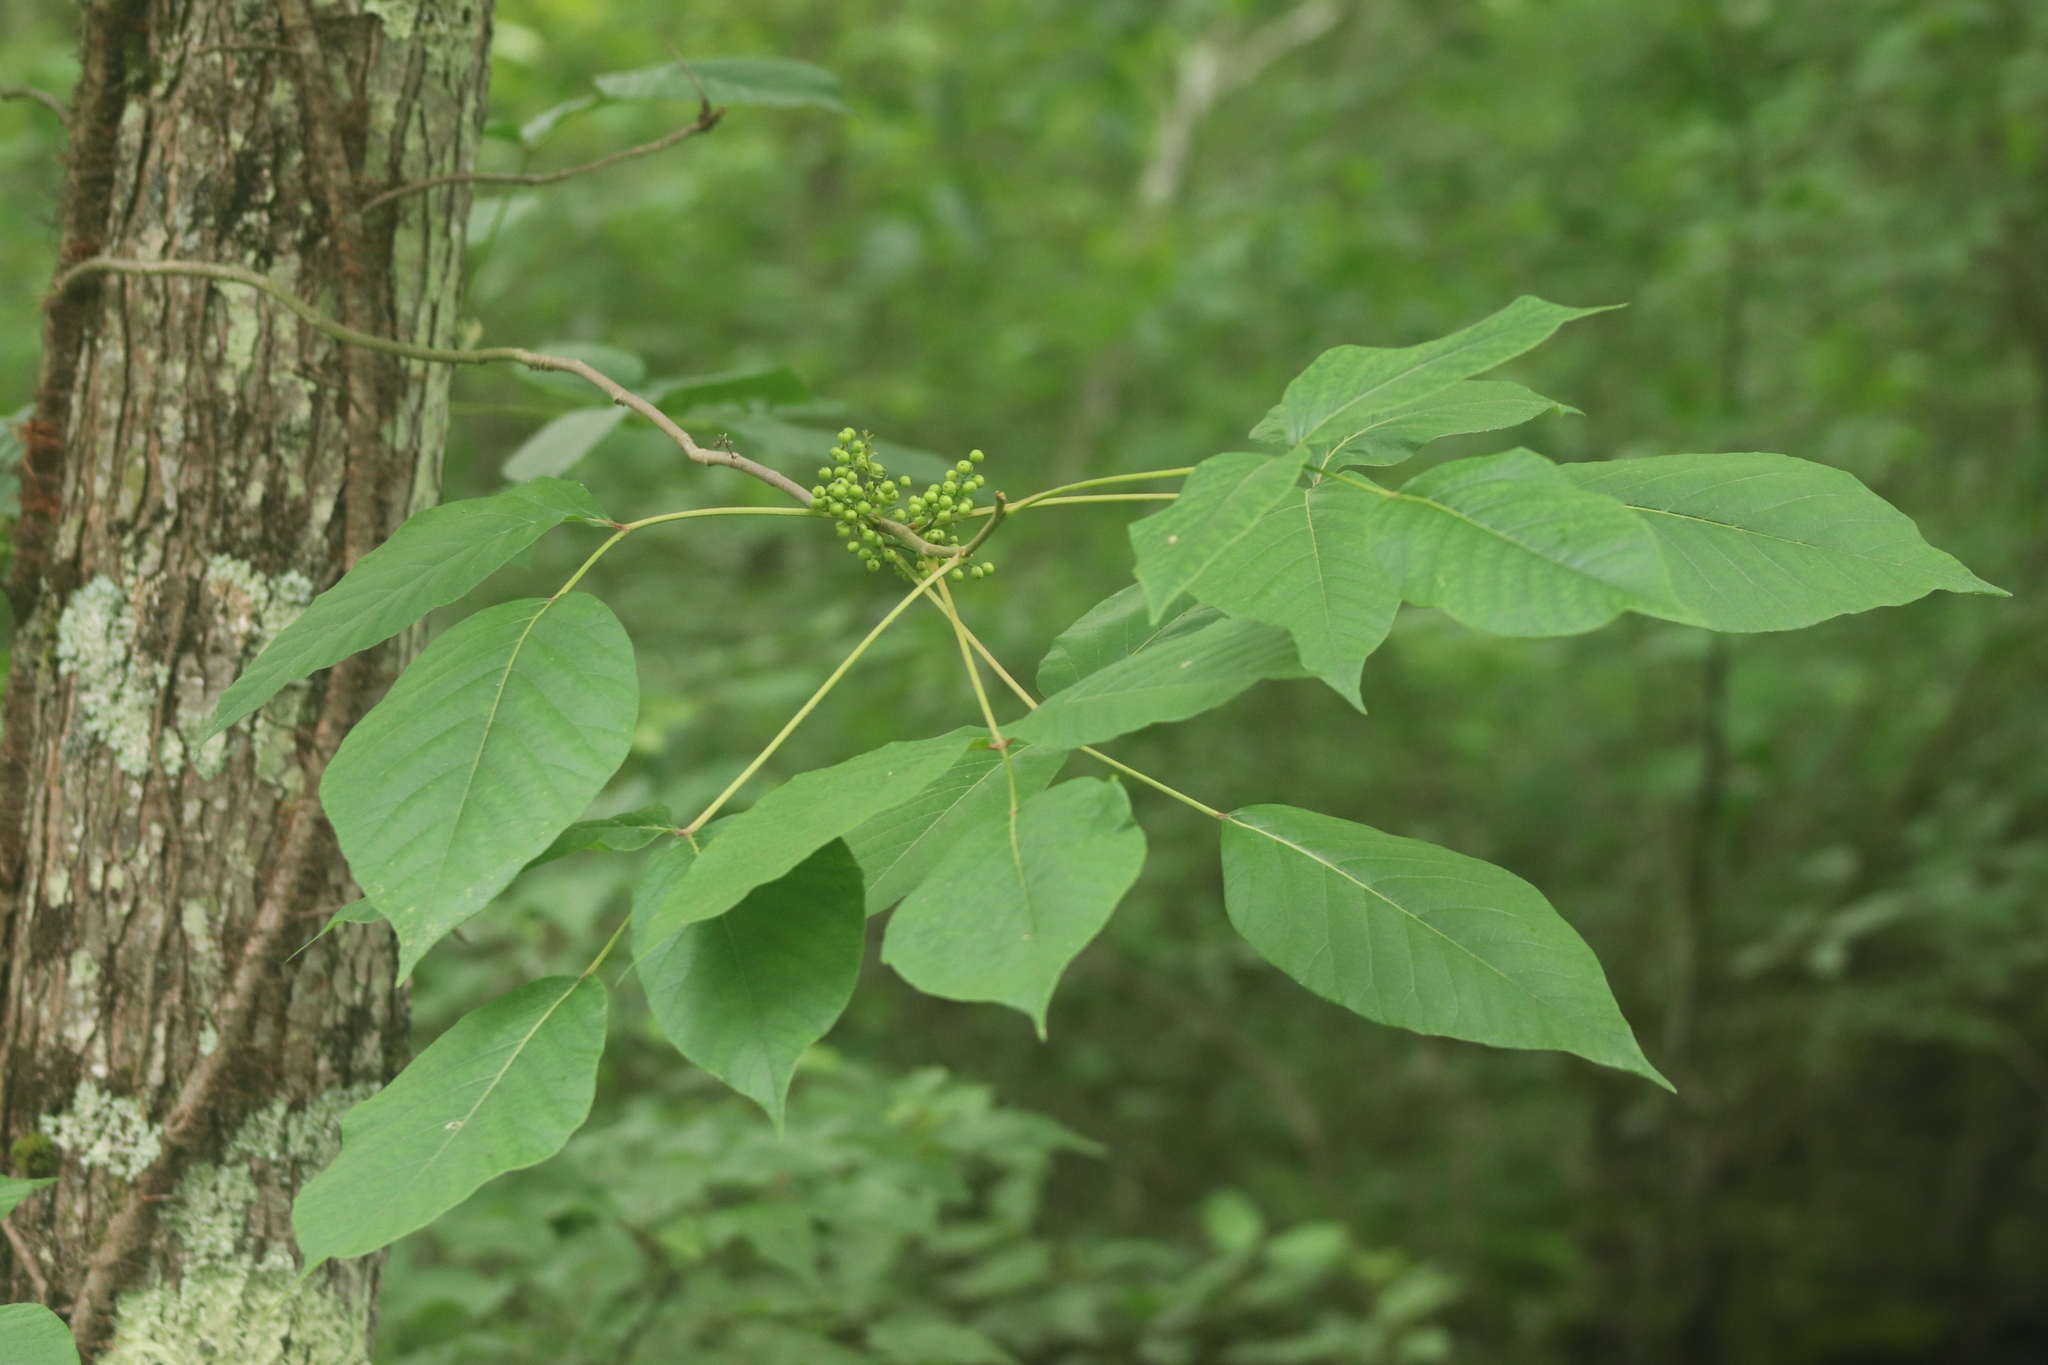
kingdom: Plantae
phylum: Tracheophyta
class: Magnoliopsida
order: Sapindales
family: Anacardiaceae
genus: Toxicodendron
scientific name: Toxicodendron radicans
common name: Poison ivy
